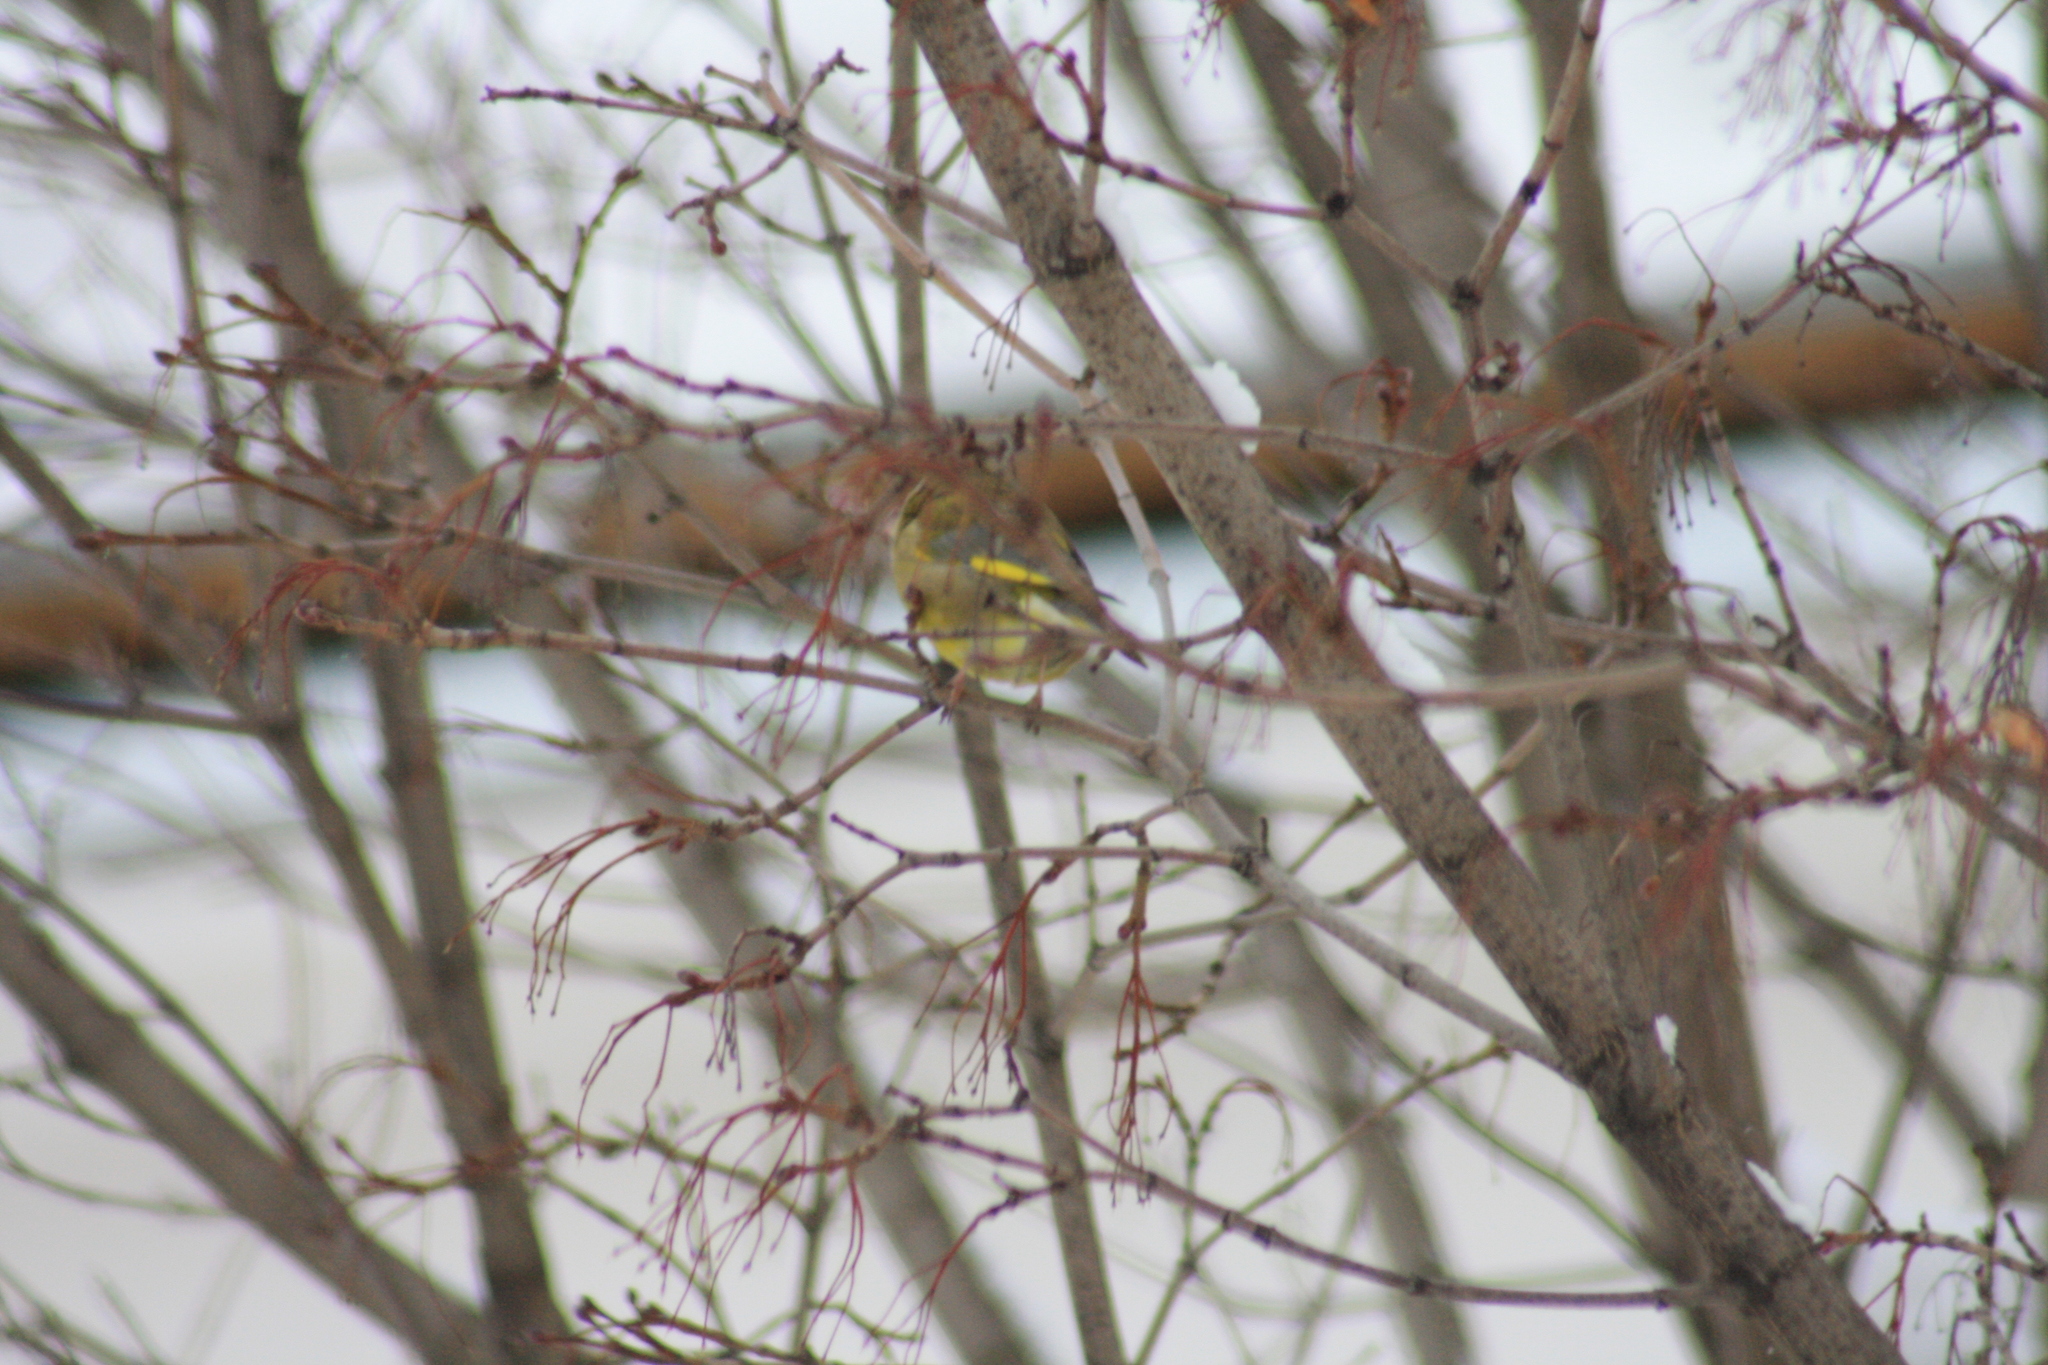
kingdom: Plantae
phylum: Tracheophyta
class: Liliopsida
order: Poales
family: Poaceae
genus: Chloris
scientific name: Chloris chloris
